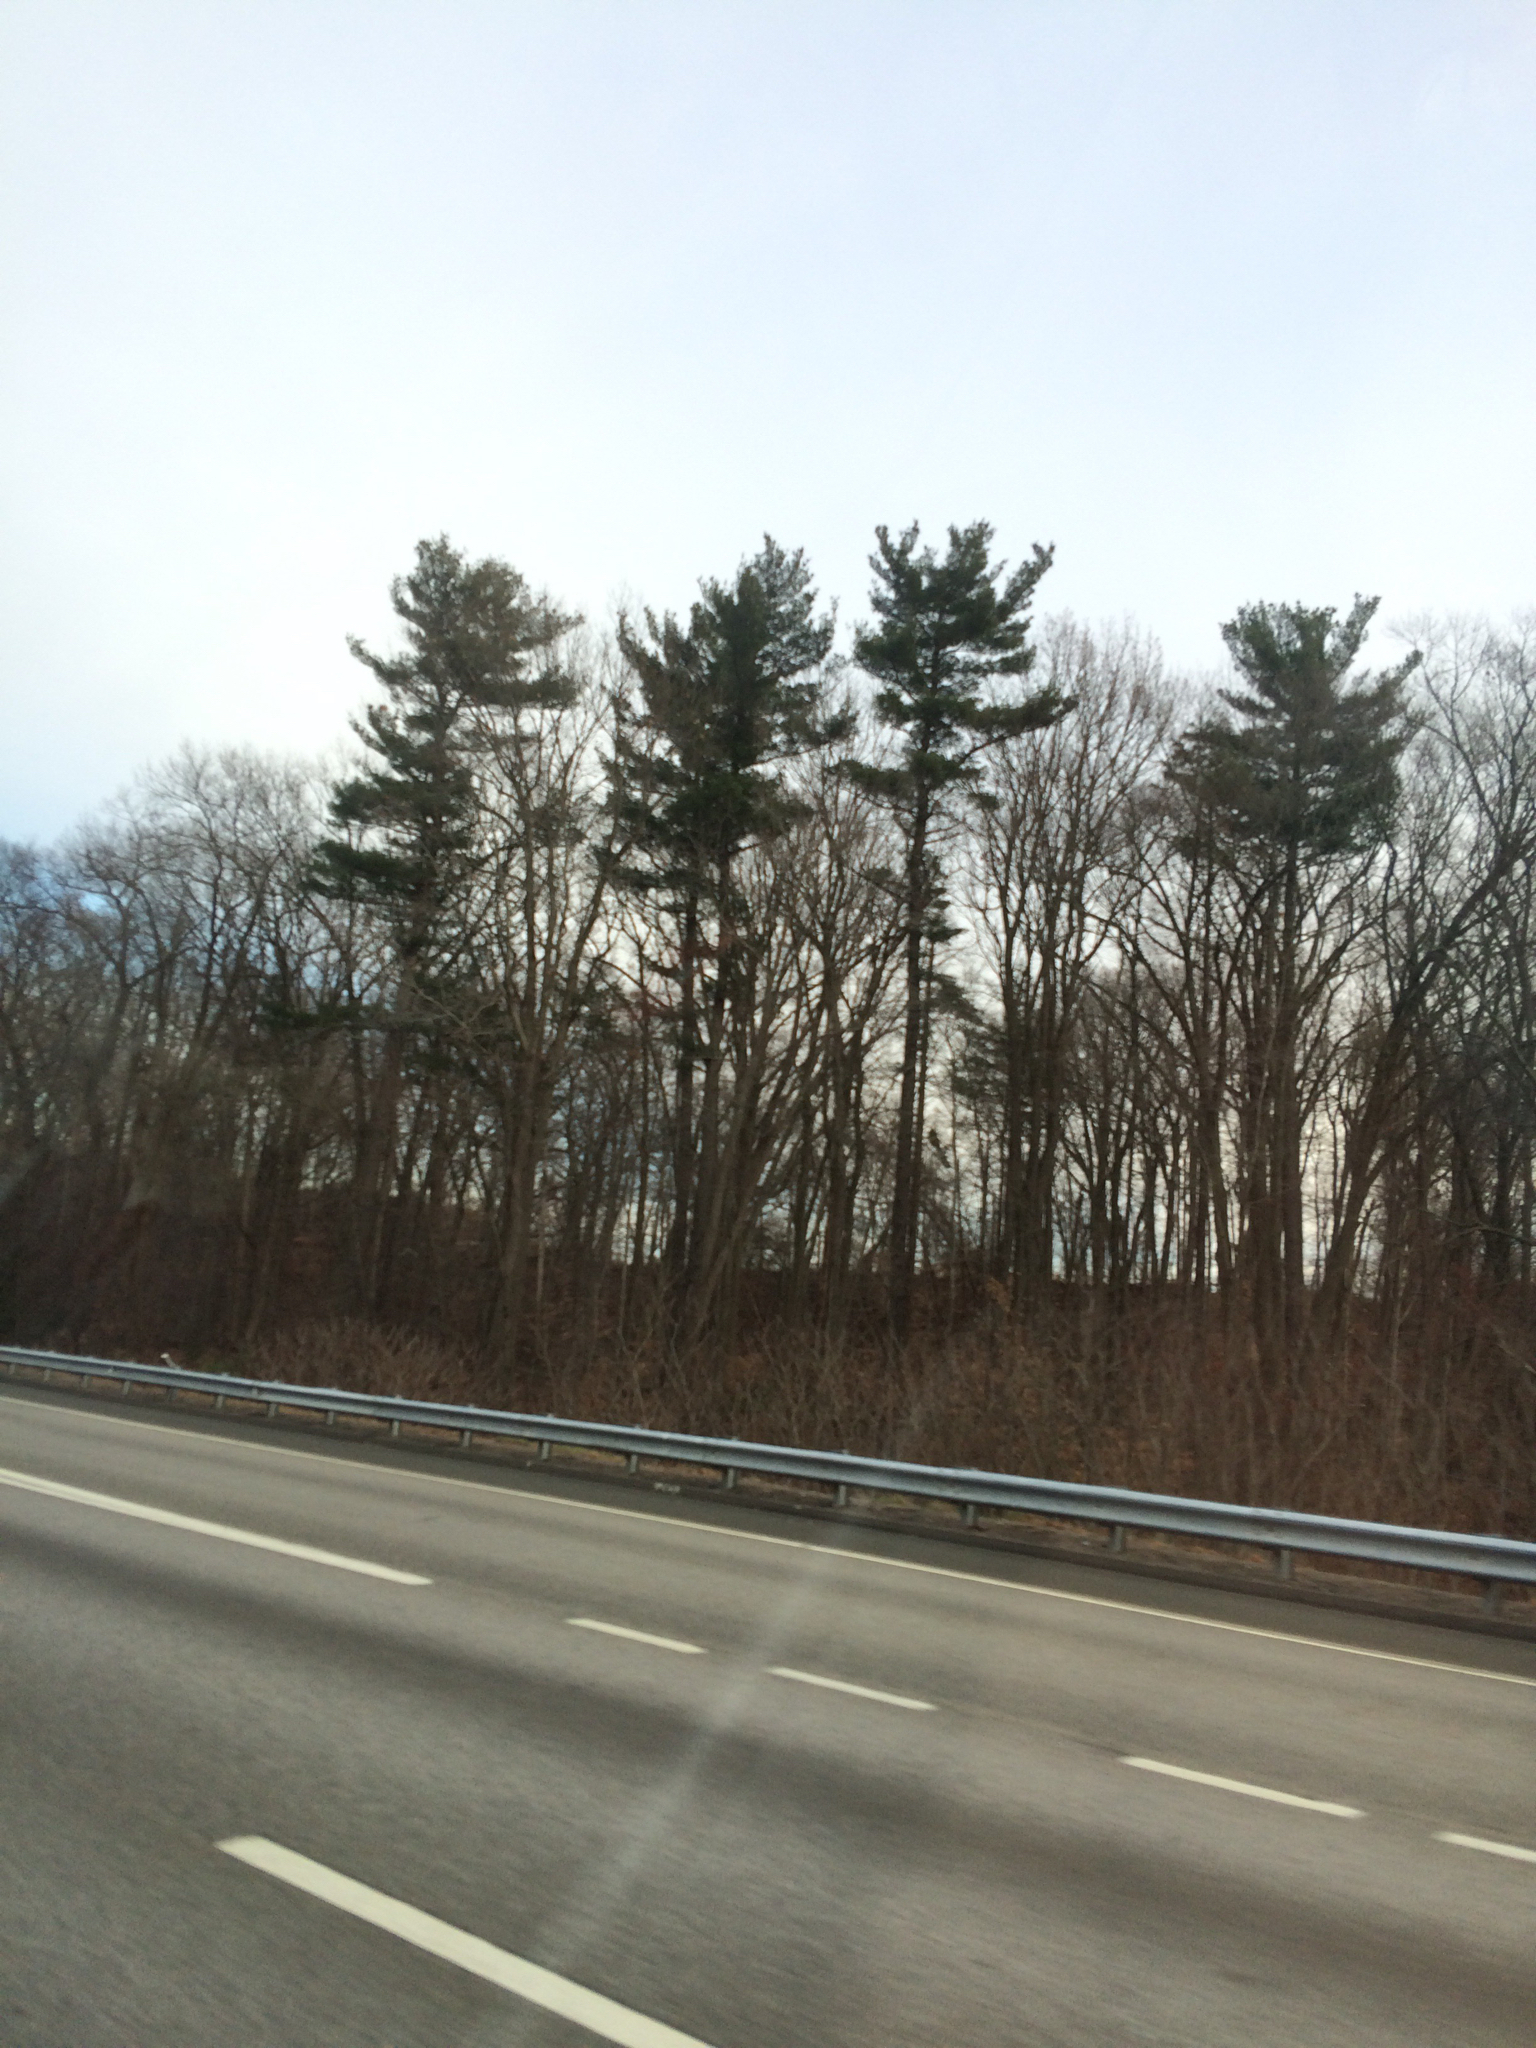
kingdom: Plantae
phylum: Tracheophyta
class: Pinopsida
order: Pinales
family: Pinaceae
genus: Pinus
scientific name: Pinus strobus
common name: Weymouth pine
